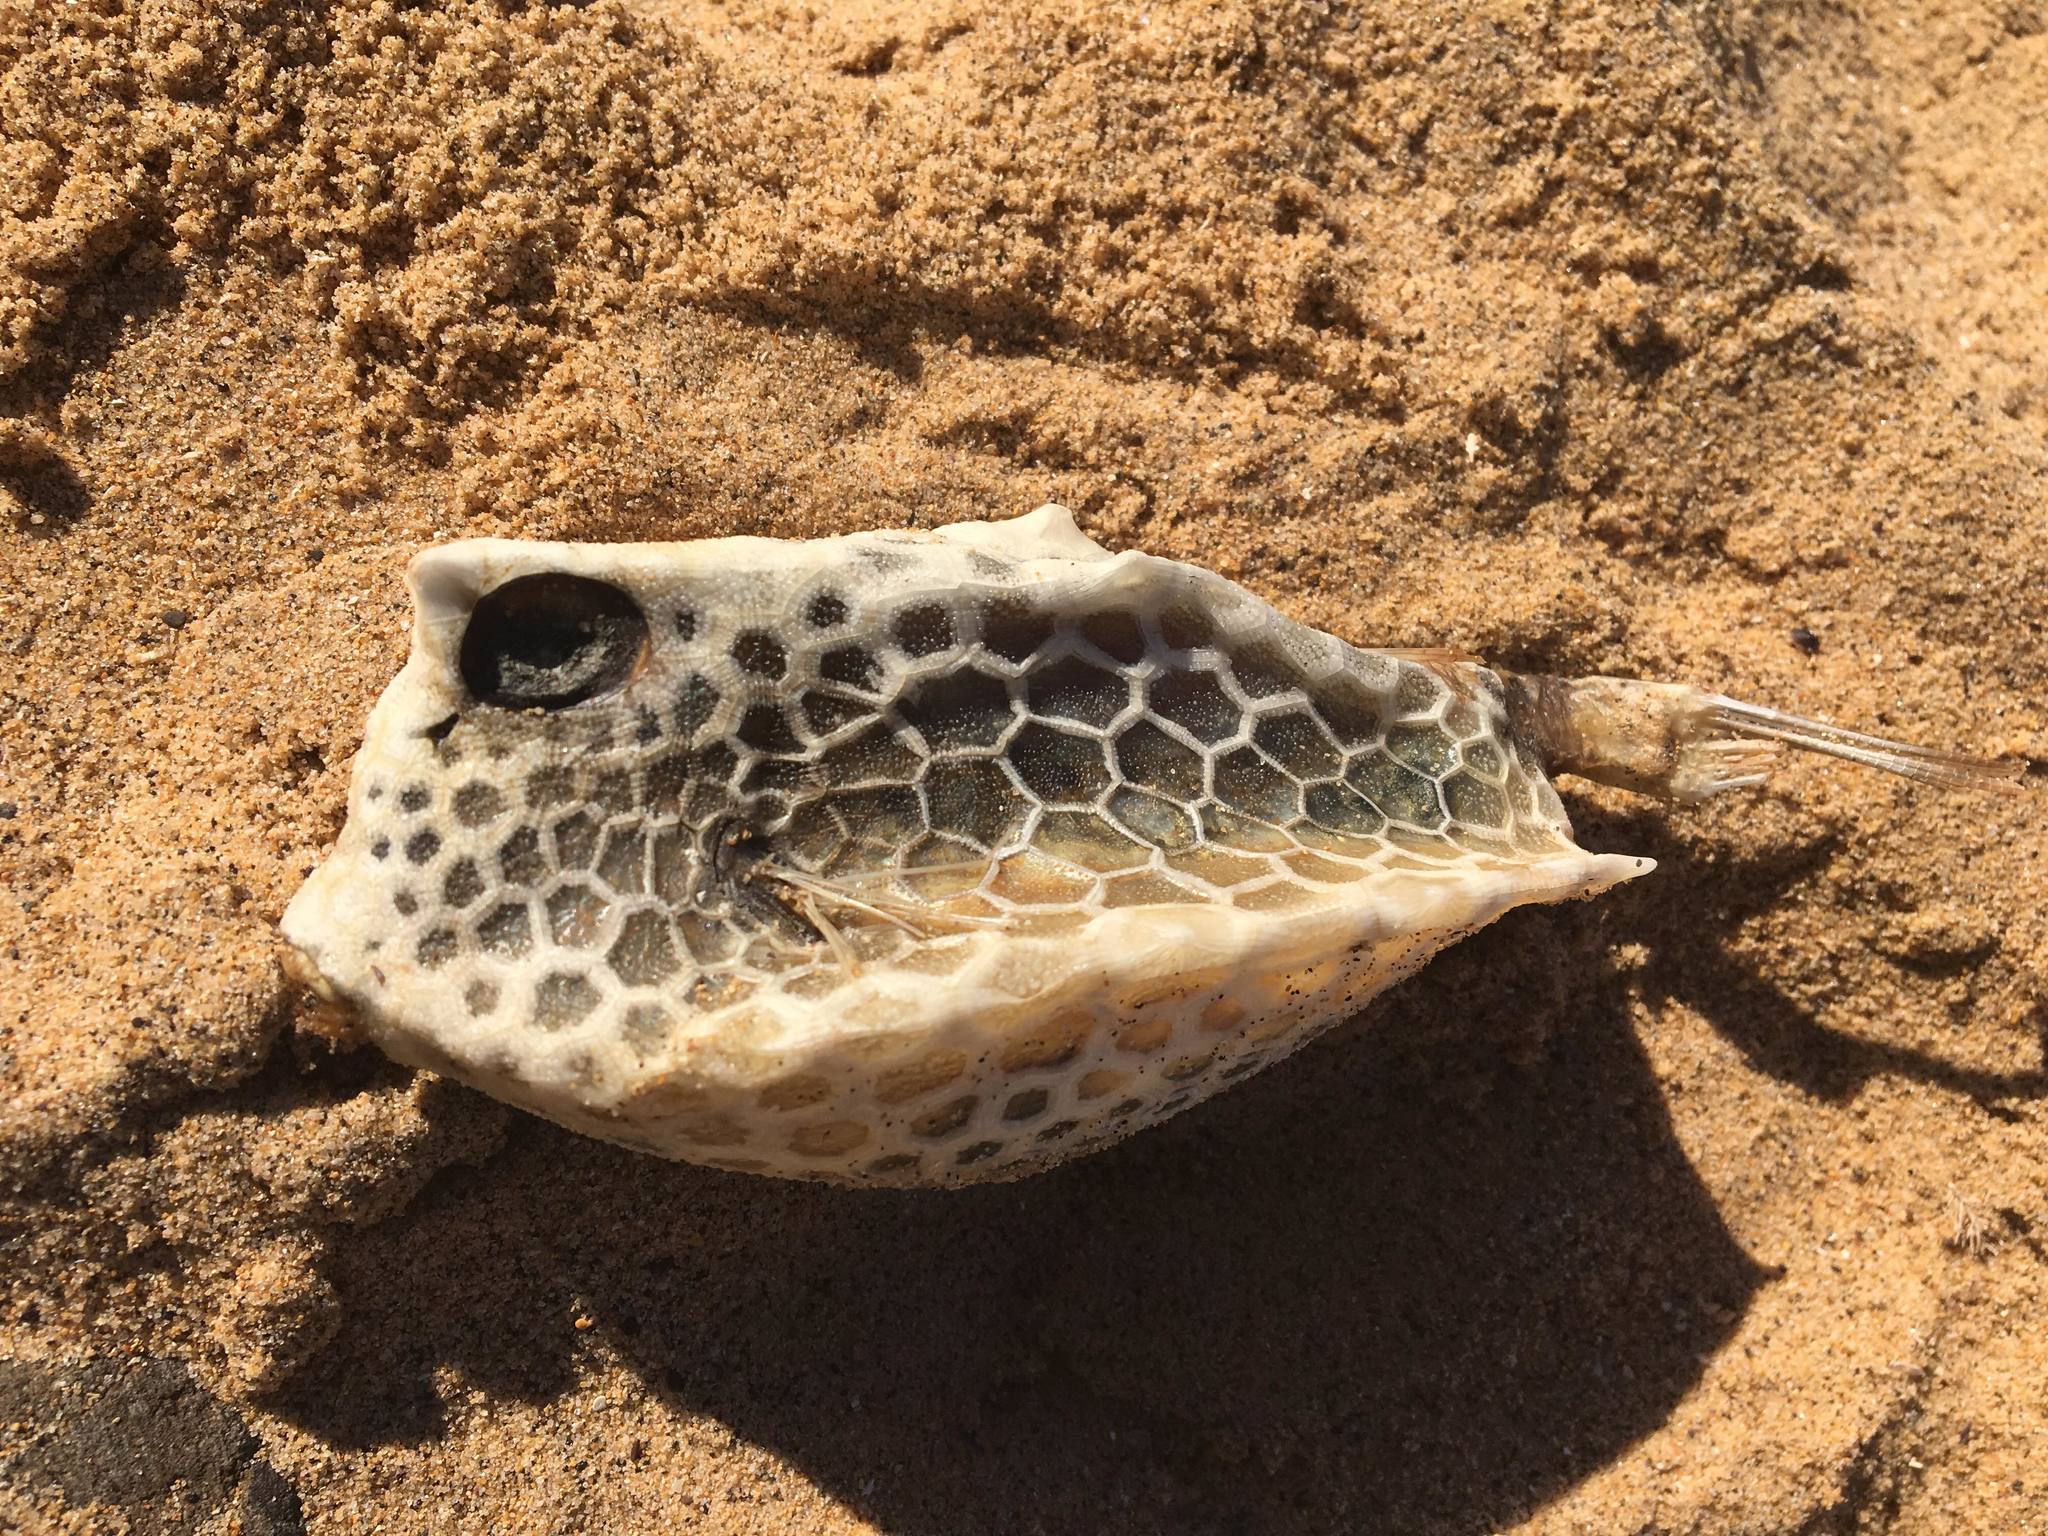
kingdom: Animalia
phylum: Chordata
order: Tetraodontiformes
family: Ostraciidae
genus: Lactoria
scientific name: Lactoria diaphana
